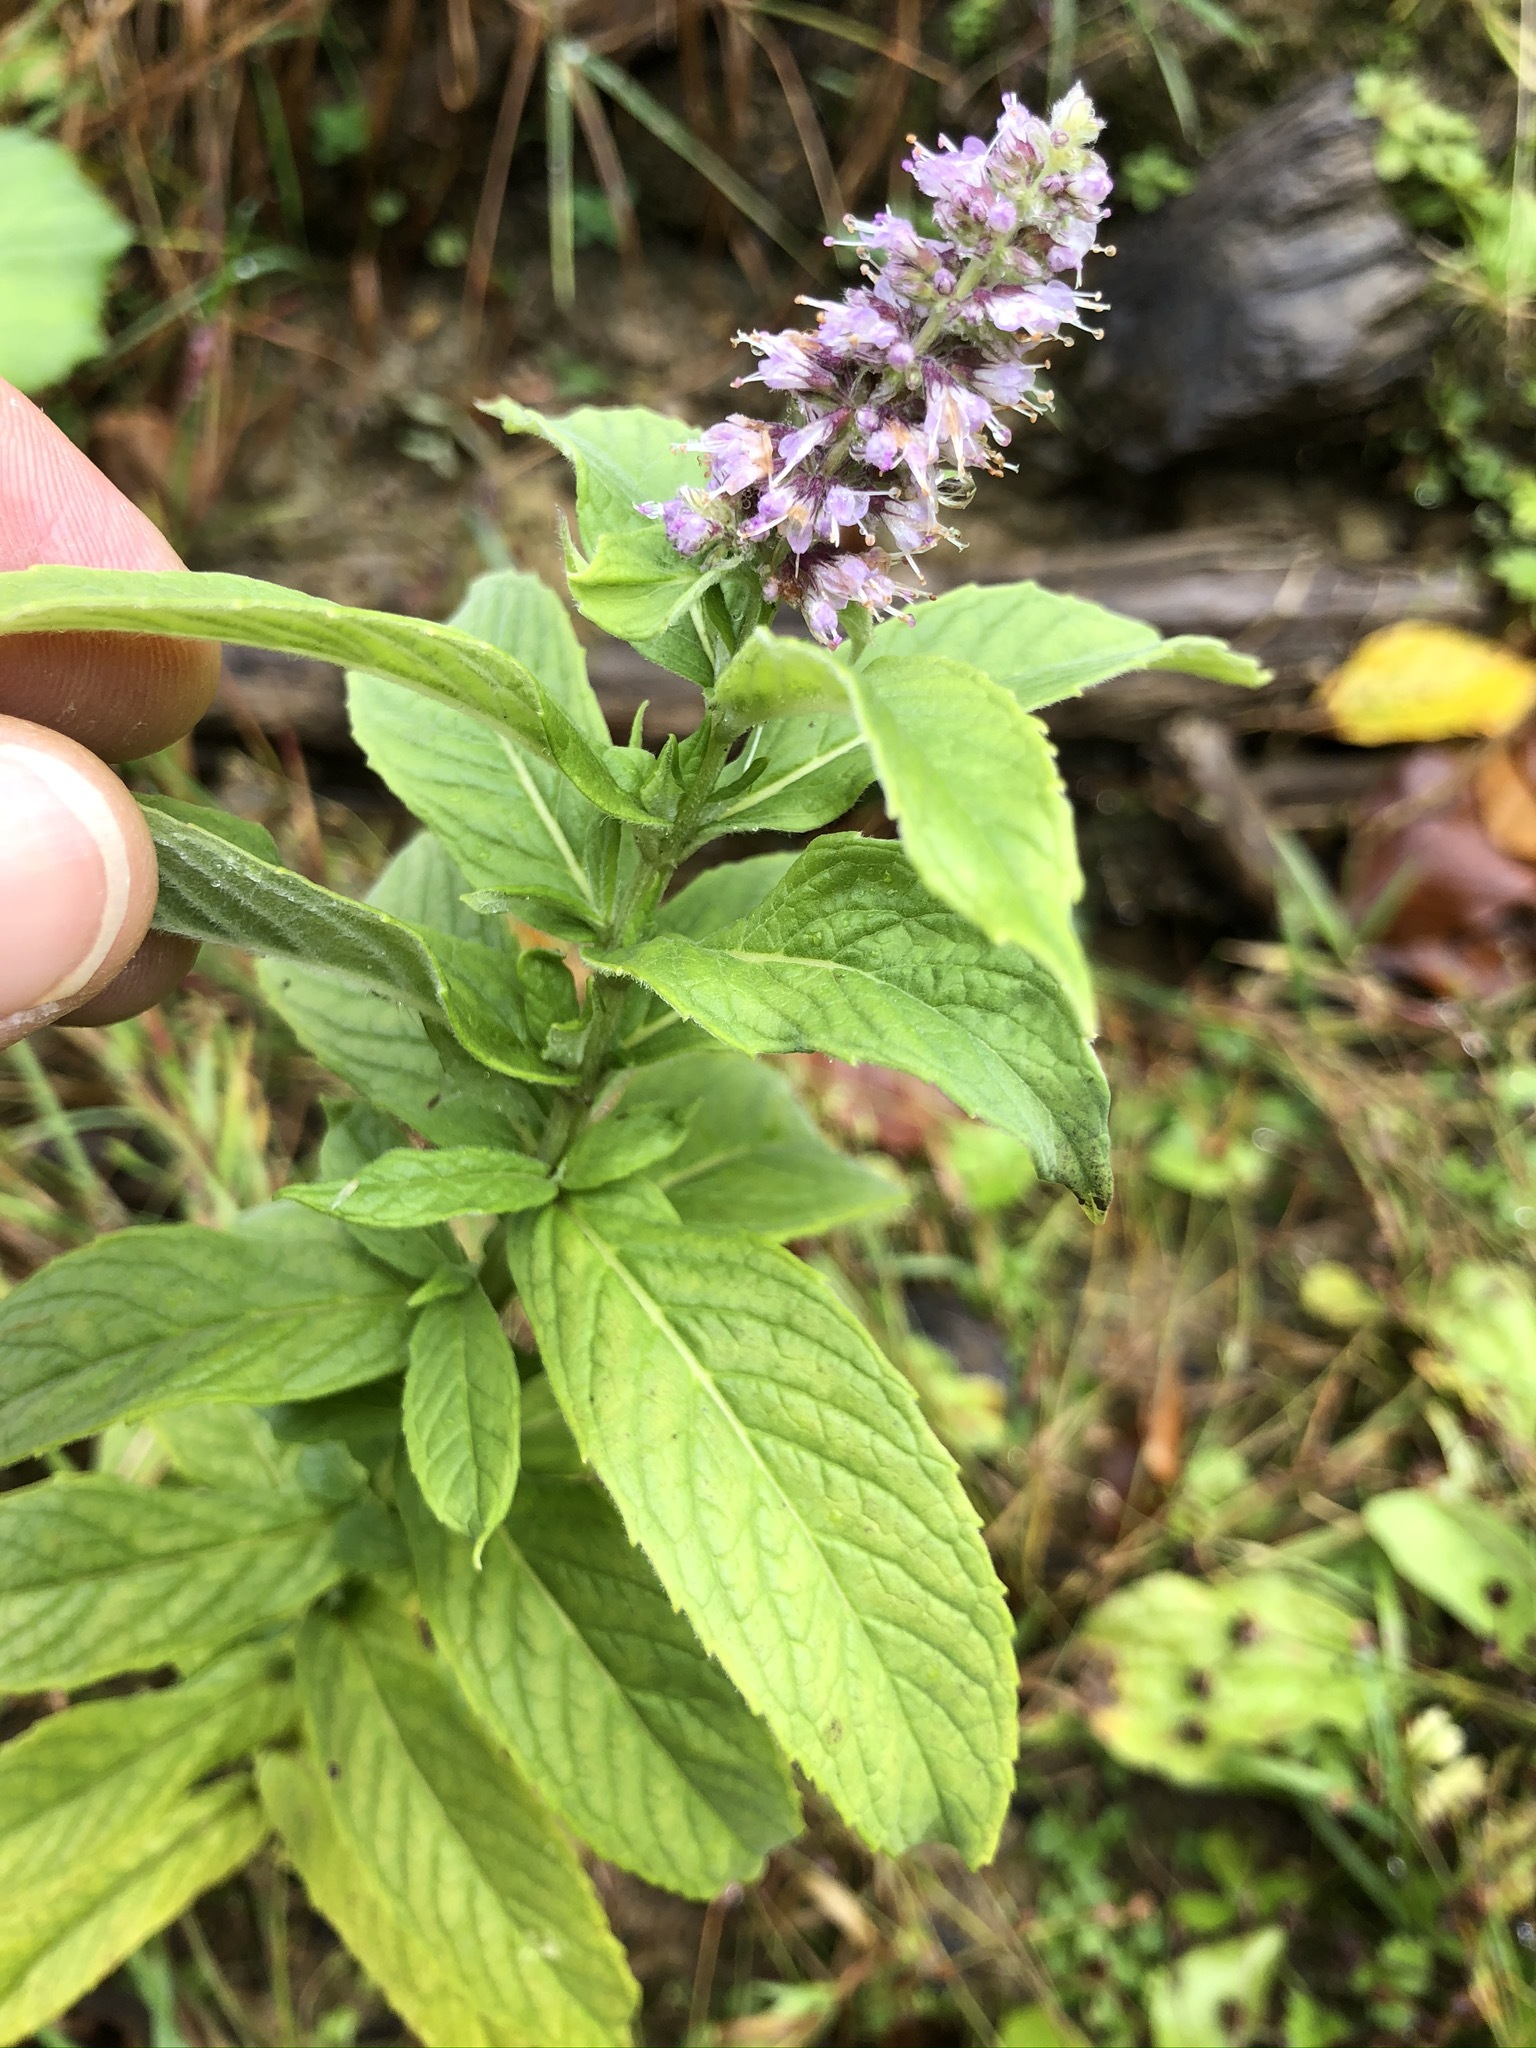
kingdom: Plantae
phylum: Tracheophyta
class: Magnoliopsida
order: Lamiales
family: Lamiaceae
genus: Mentha
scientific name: Mentha longifolia
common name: Horse mint
